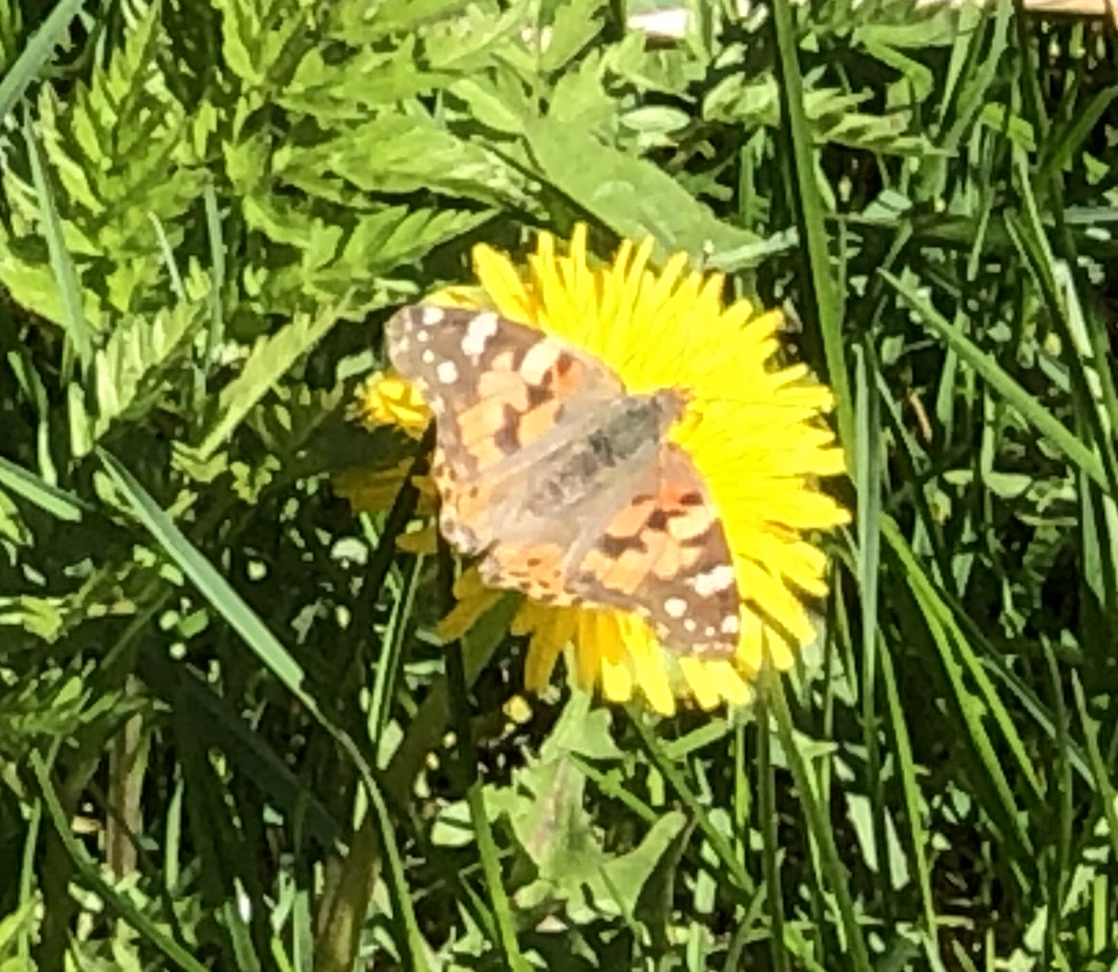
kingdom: Animalia
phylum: Arthropoda
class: Insecta
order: Lepidoptera
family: Nymphalidae
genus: Vanessa
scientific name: Vanessa cardui
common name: Painted lady
